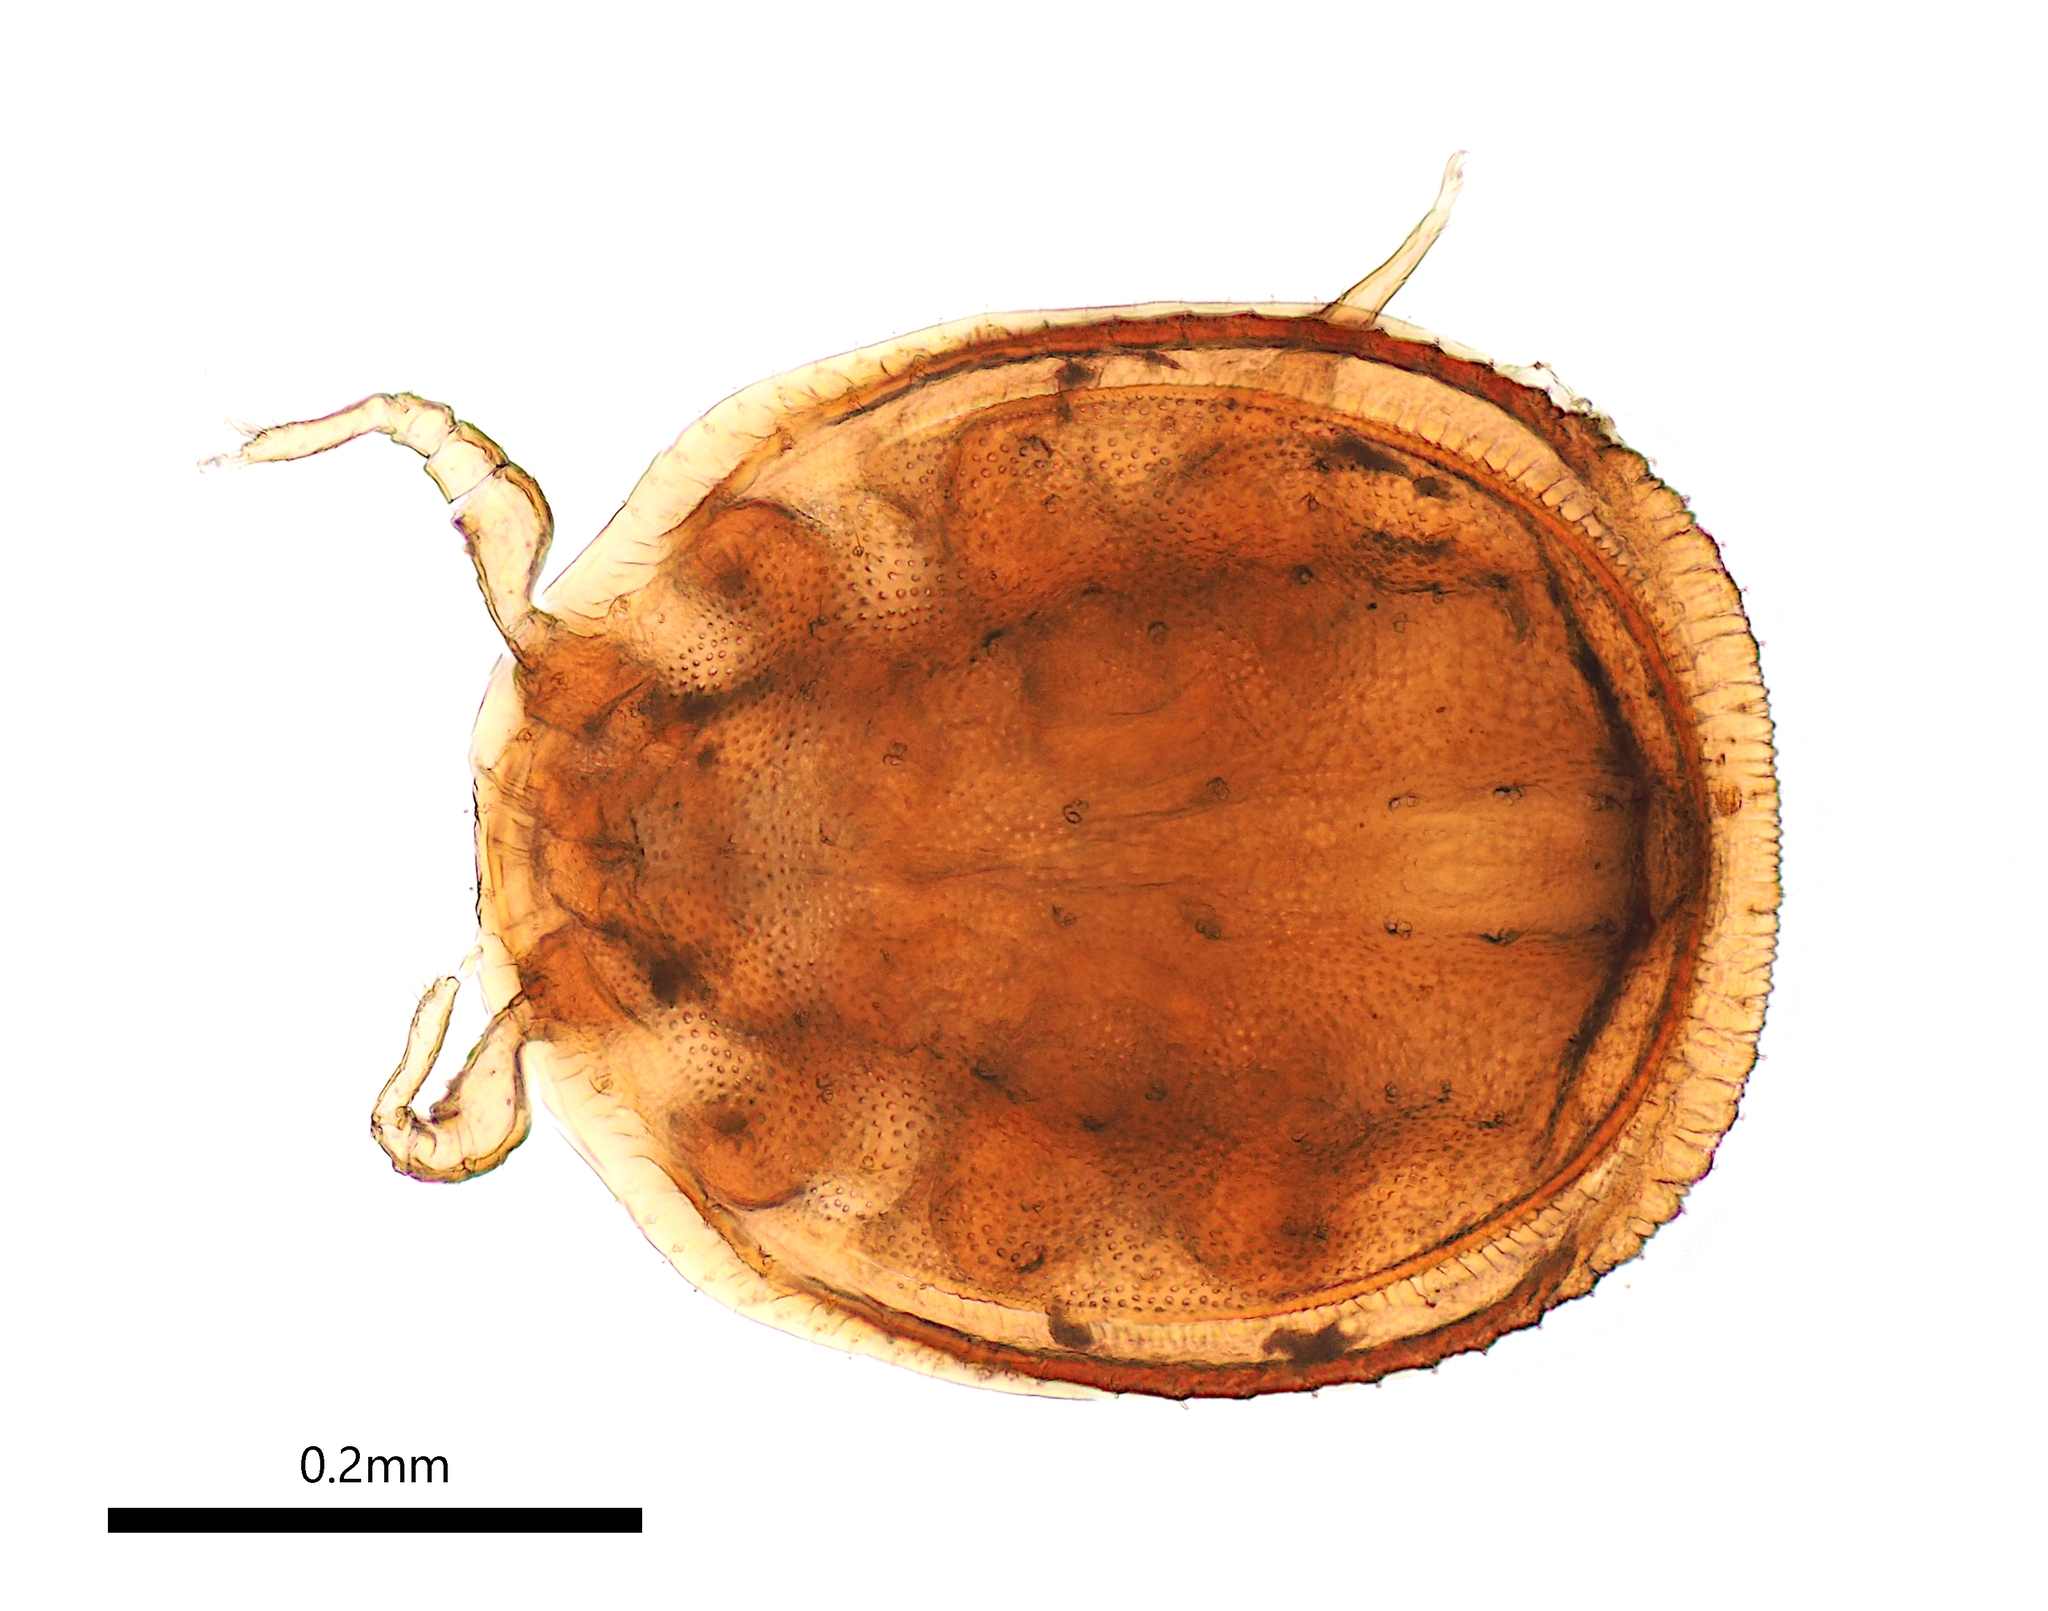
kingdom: Animalia
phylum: Arthropoda
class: Arachnida
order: Mesostigmata
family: Uropodidae
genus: Capricornella
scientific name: Capricornella bicornuta
